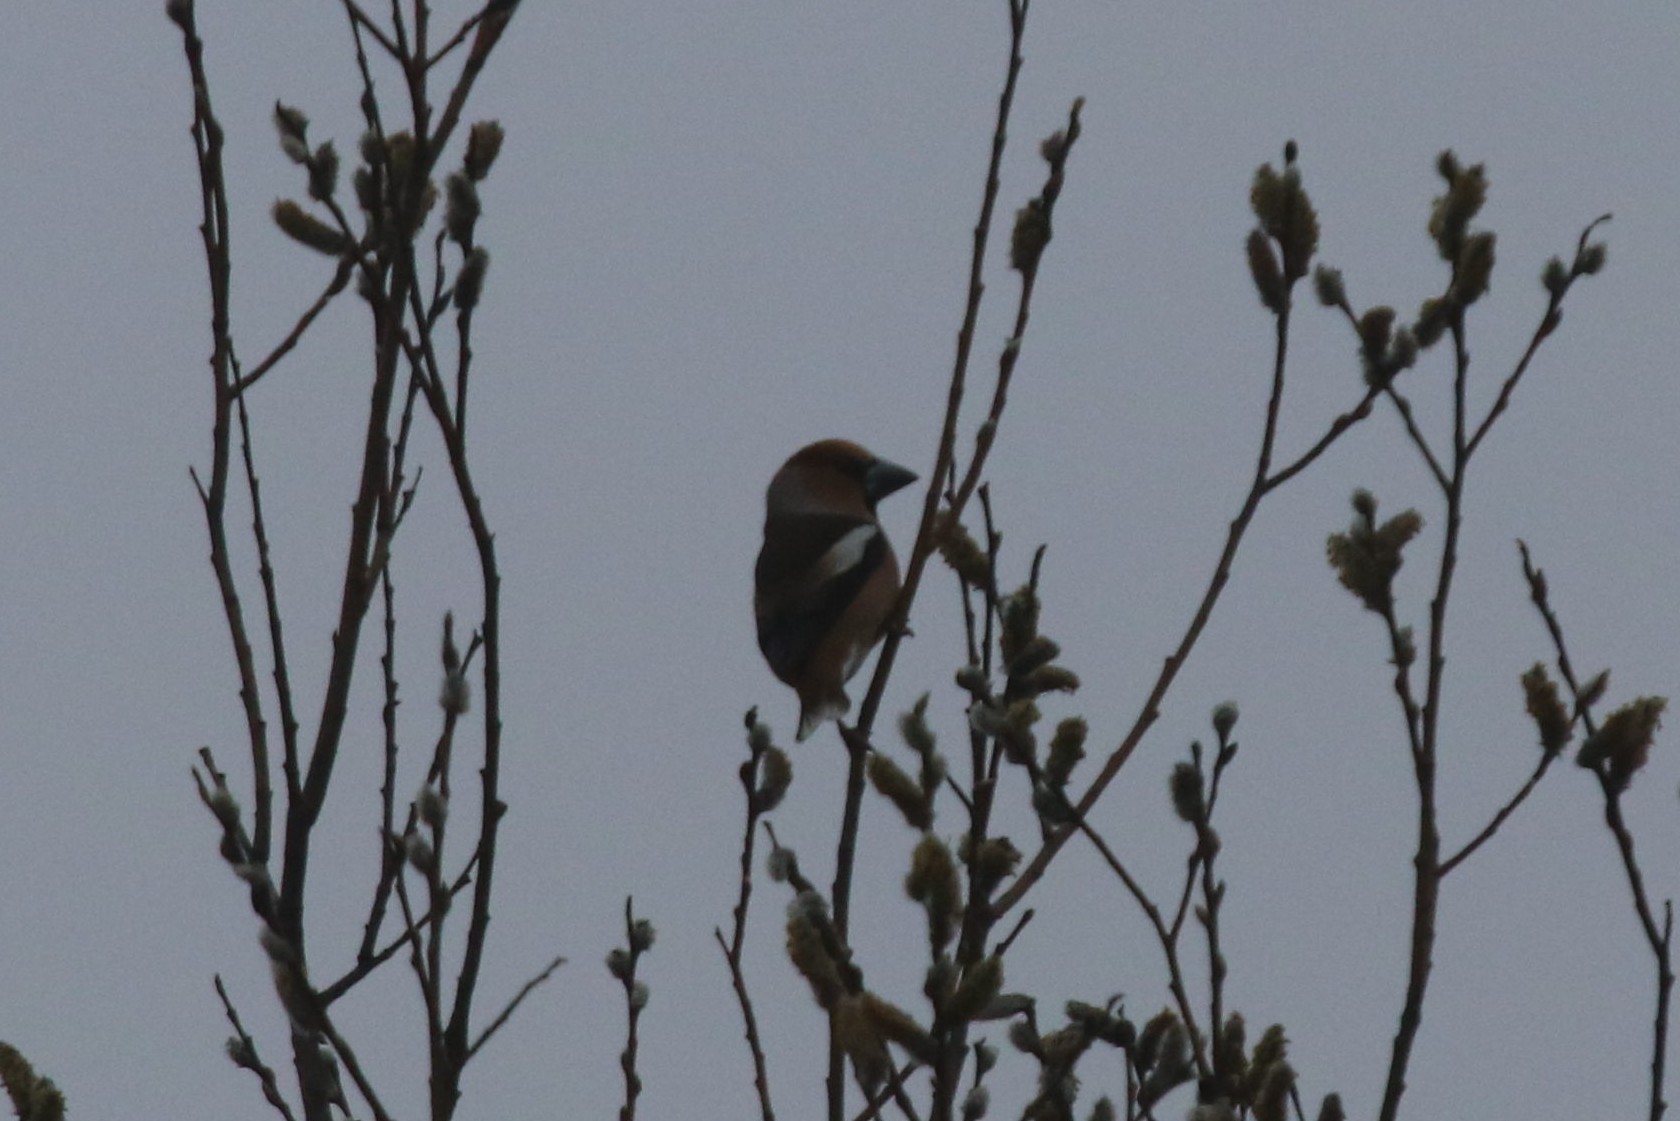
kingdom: Animalia
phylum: Chordata
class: Aves
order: Passeriformes
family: Fringillidae
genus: Coccothraustes
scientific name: Coccothraustes coccothraustes
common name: Hawfinch
